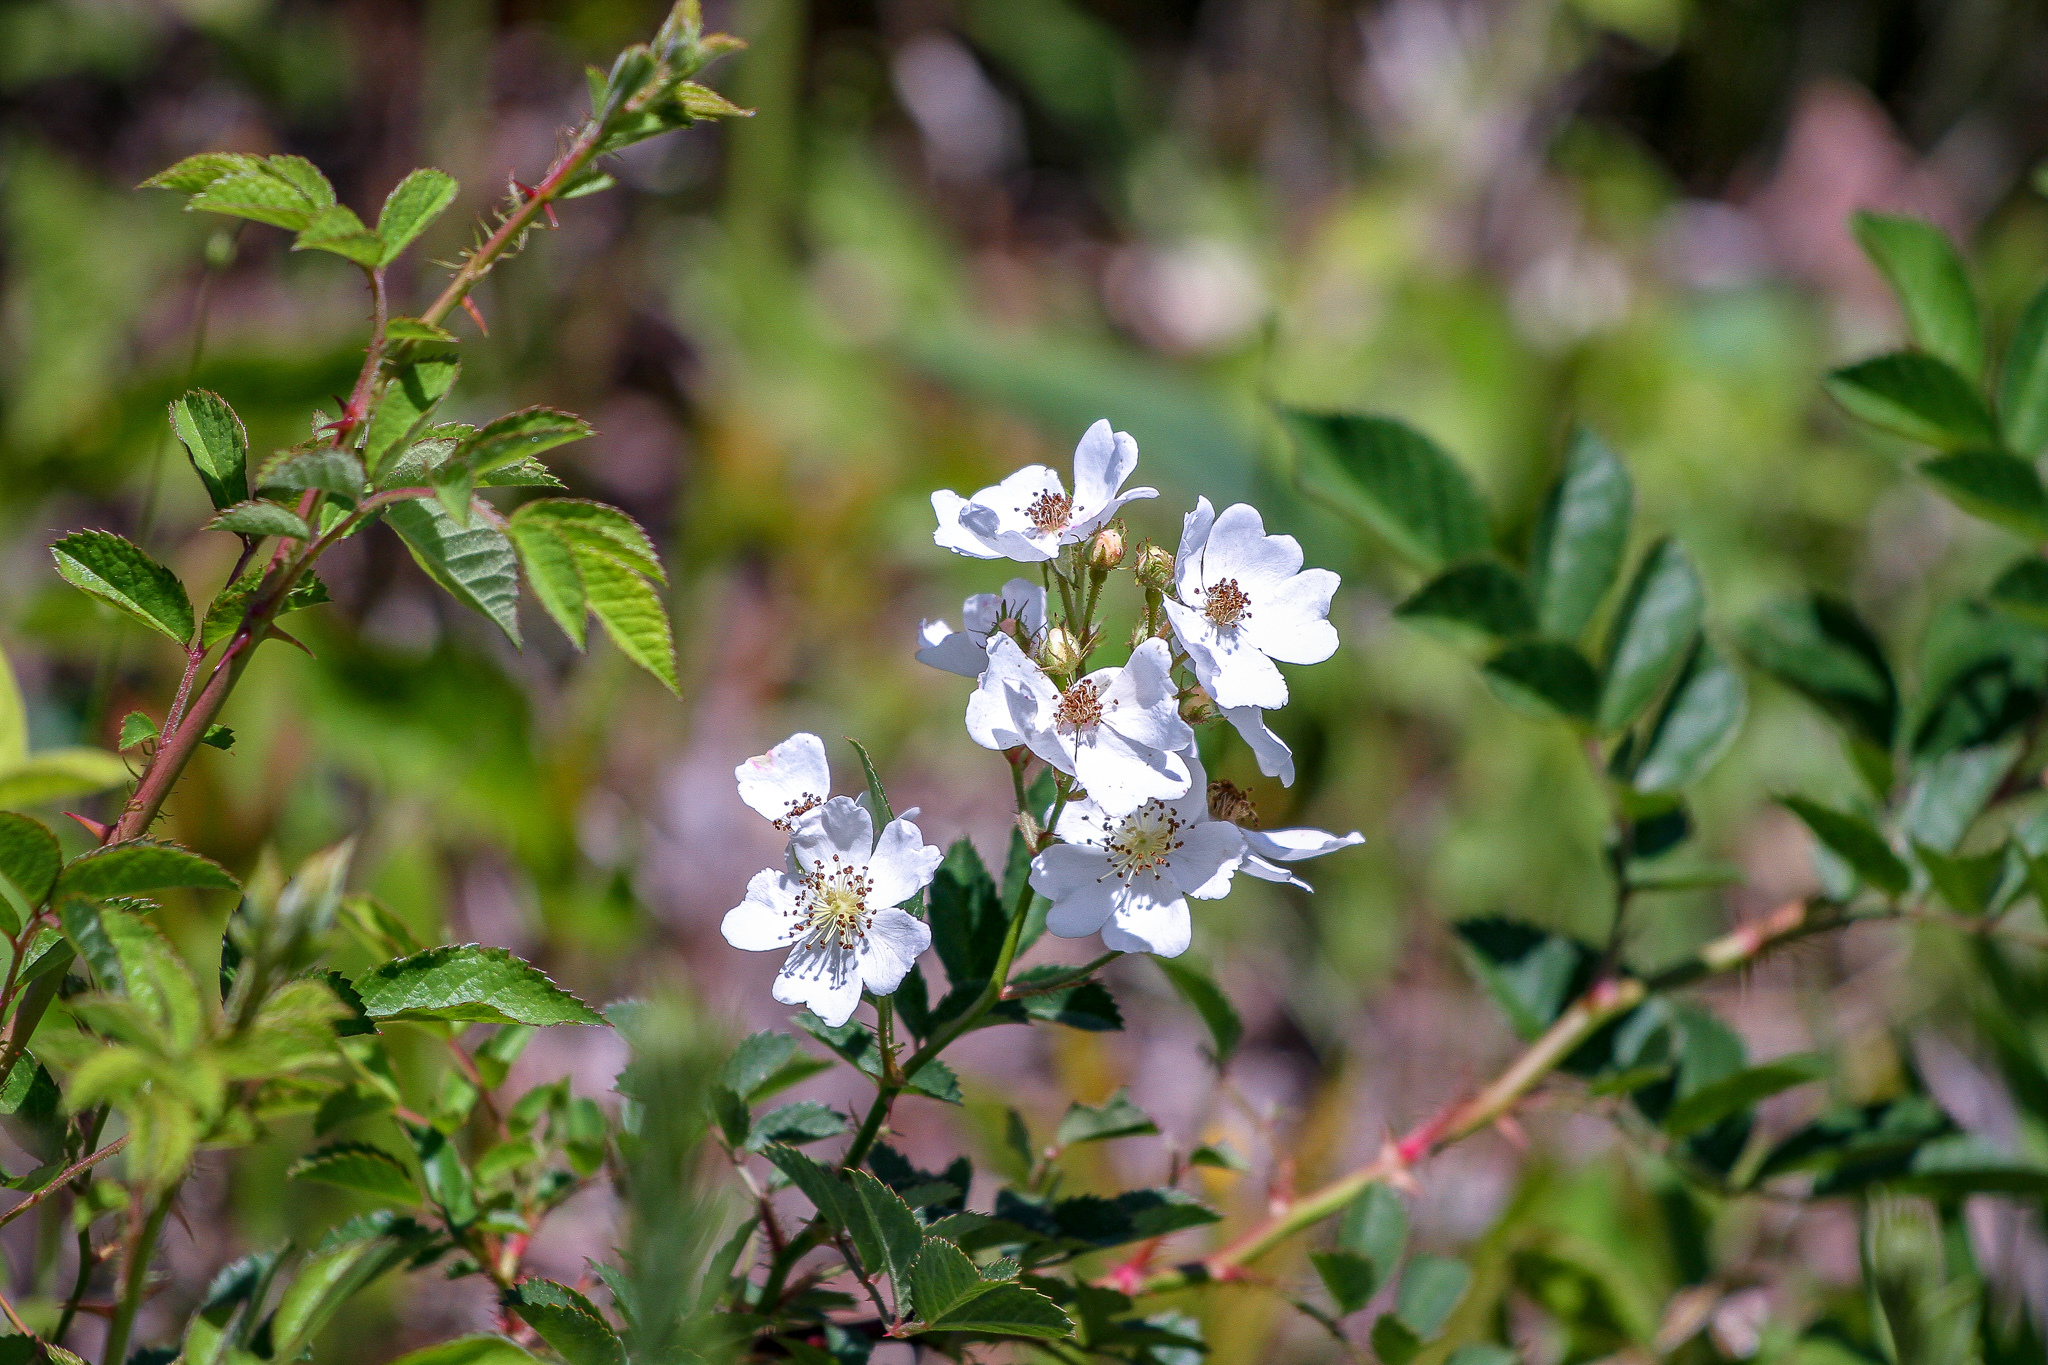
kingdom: Plantae
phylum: Tracheophyta
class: Magnoliopsida
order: Rosales
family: Rosaceae
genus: Rosa
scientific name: Rosa multiflora
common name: Multiflora rose
